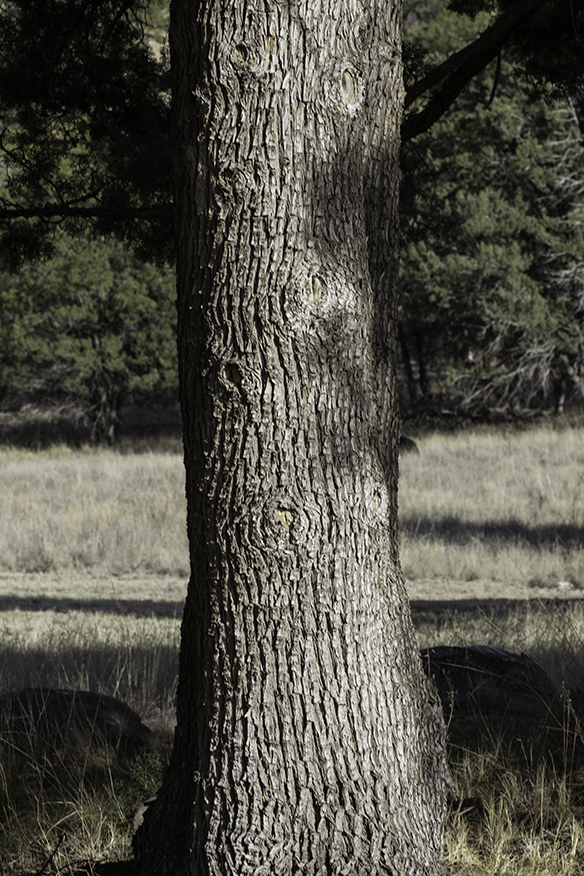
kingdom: Plantae
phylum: Tracheophyta
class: Pinopsida
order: Pinales
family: Cupressaceae
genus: Cupressus
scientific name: Cupressus arizonica
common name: Arizona cypress
